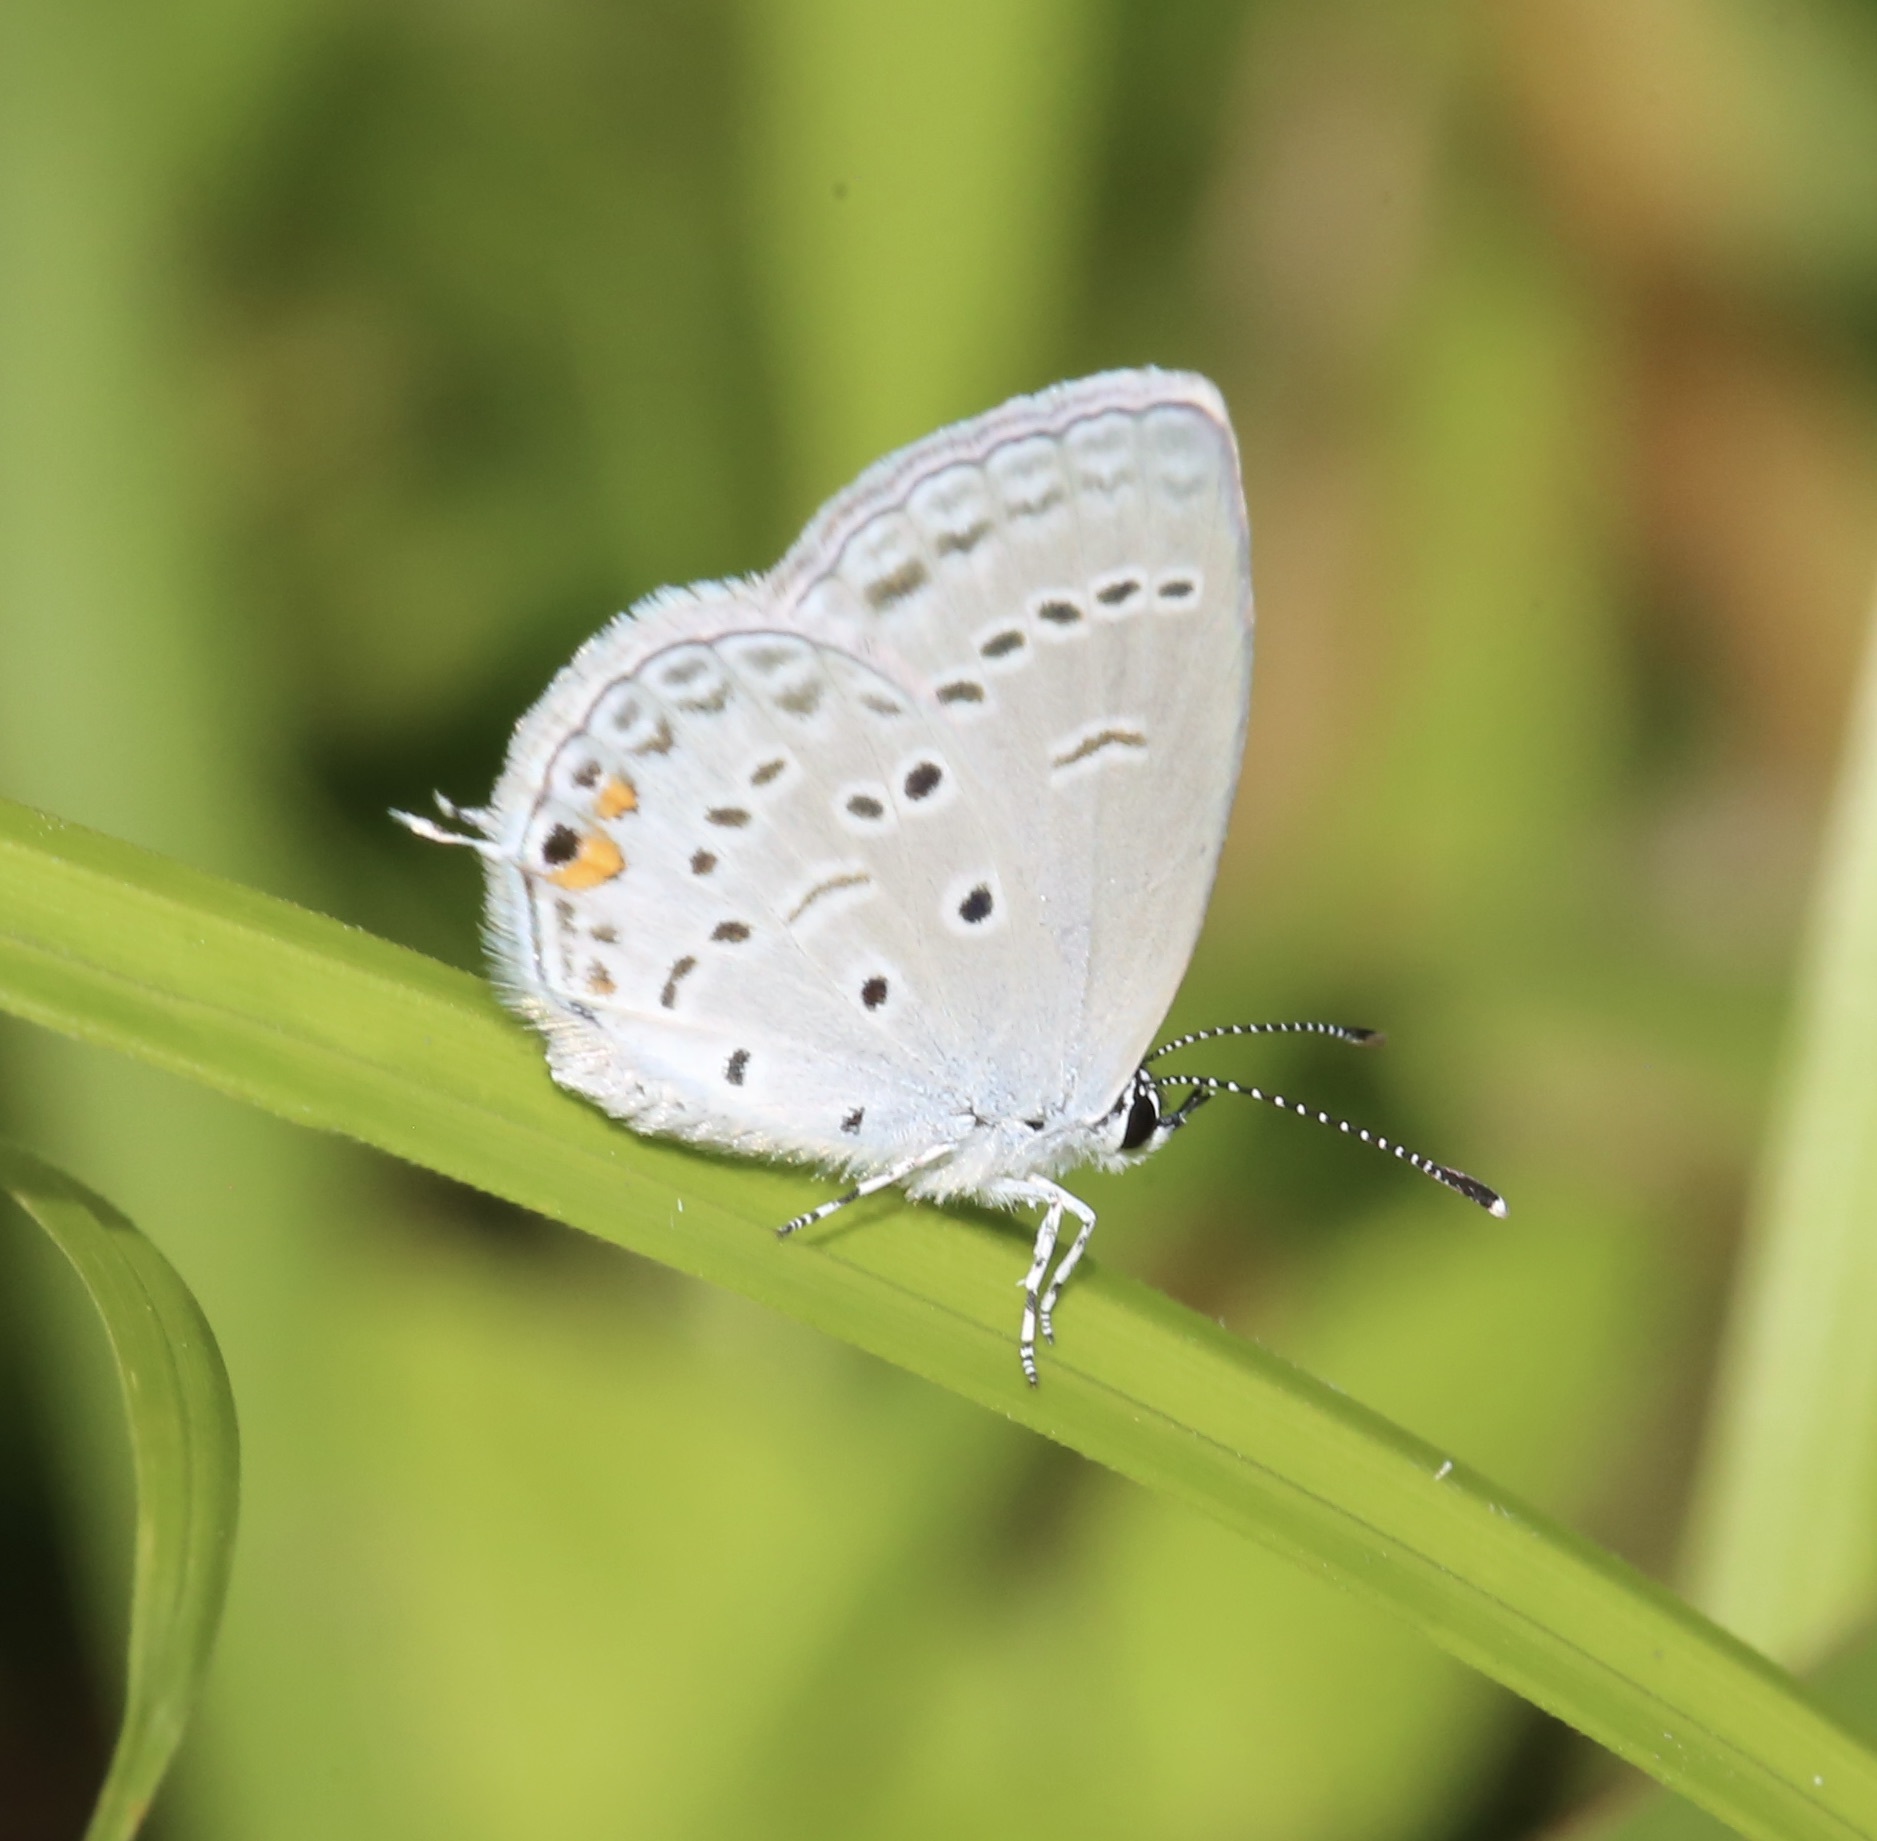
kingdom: Animalia
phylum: Arthropoda
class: Insecta
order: Lepidoptera
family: Lycaenidae
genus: Elkalyce
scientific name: Elkalyce comyntas
